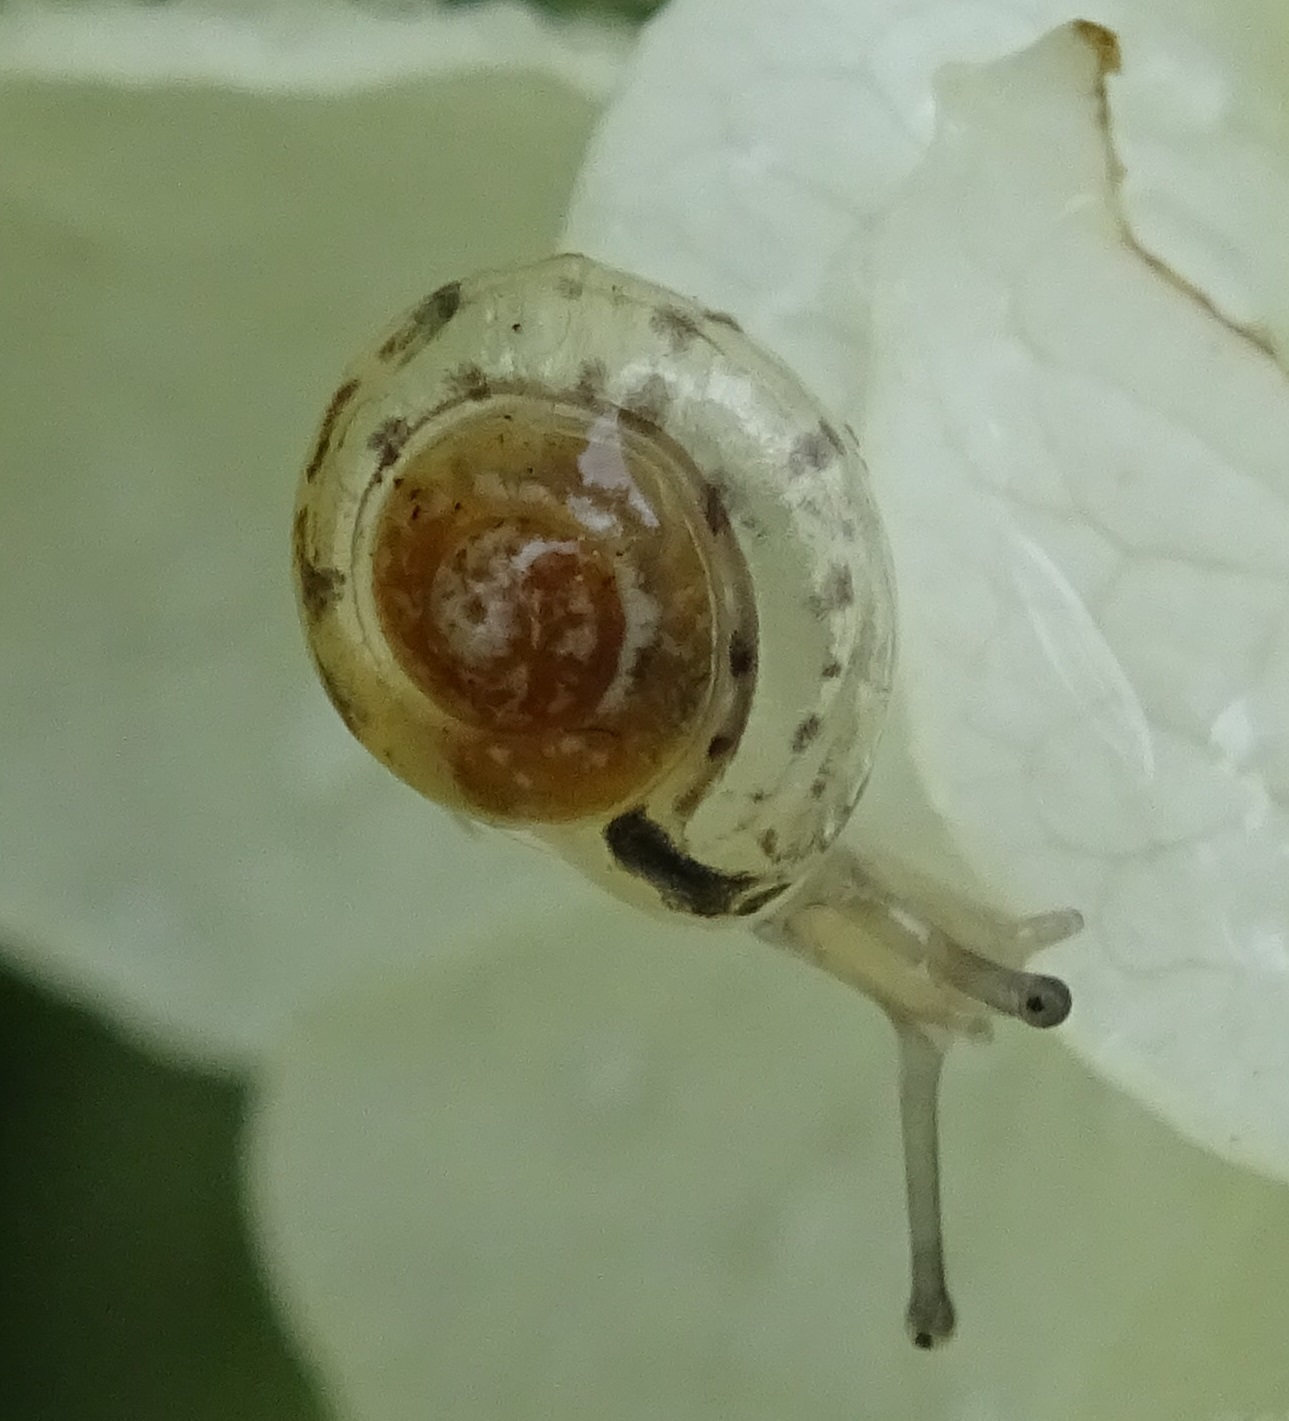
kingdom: Animalia
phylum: Mollusca
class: Gastropoda
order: Stylommatophora
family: Hygromiidae
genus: Hygromia
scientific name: Hygromia cinctella
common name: Girdled snail
